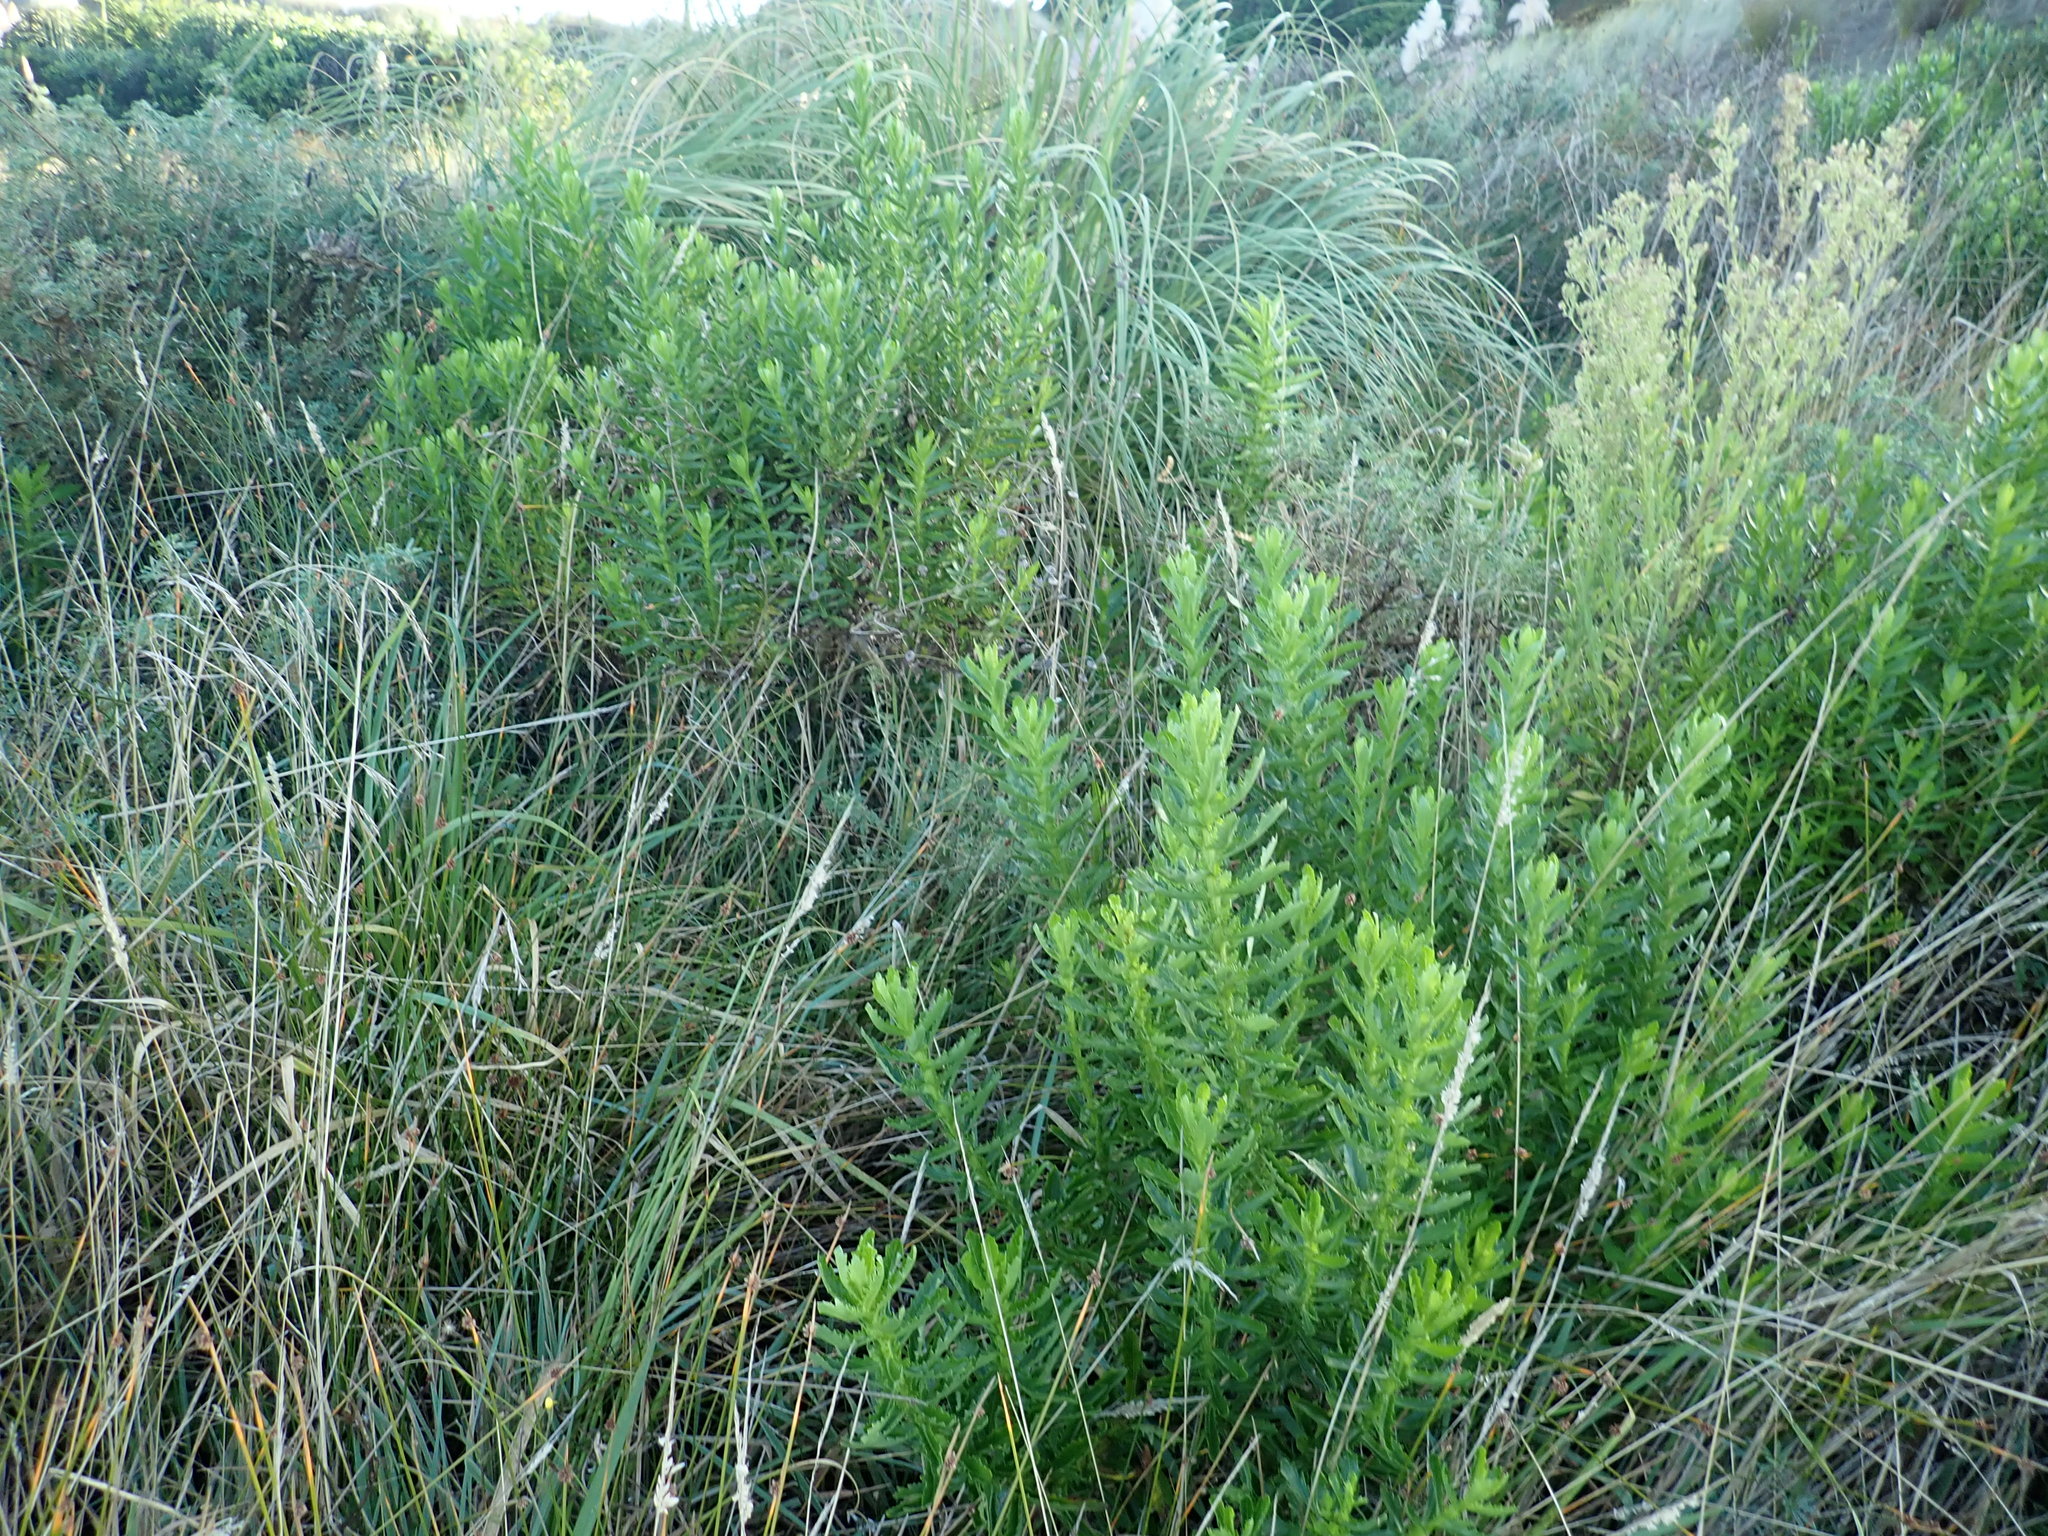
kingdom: Plantae
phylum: Tracheophyta
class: Magnoliopsida
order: Asterales
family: Asteraceae
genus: Senecio
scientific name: Senecio glastifolius
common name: Woad-leaved ragwort
